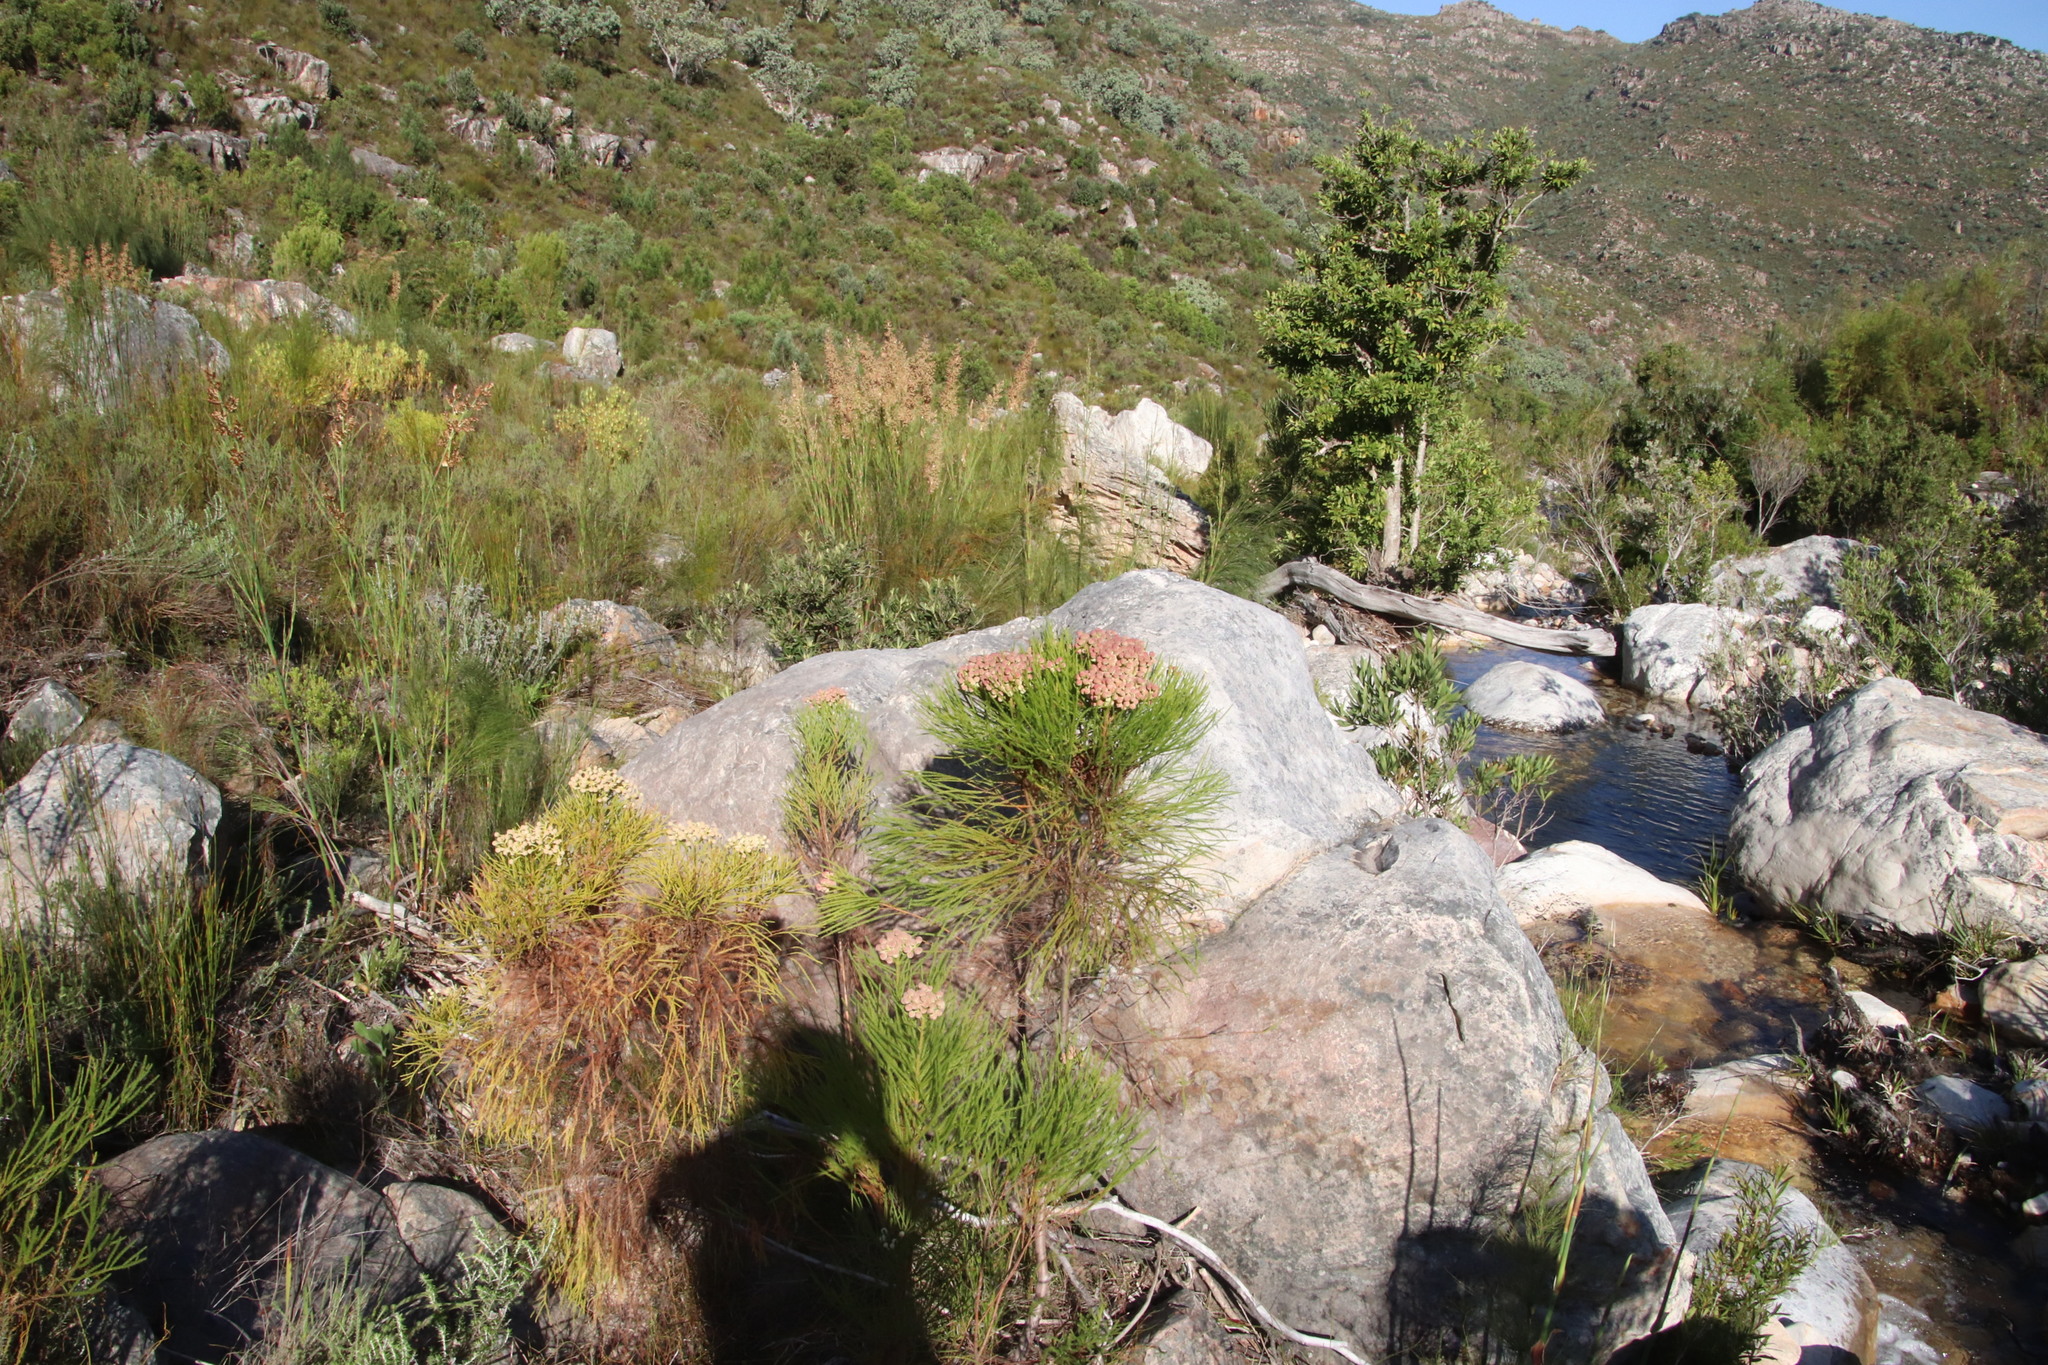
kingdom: Plantae
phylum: Tracheophyta
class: Magnoliopsida
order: Bruniales
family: Bruniaceae
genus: Berzelia
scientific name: Berzelia lanuginosa
